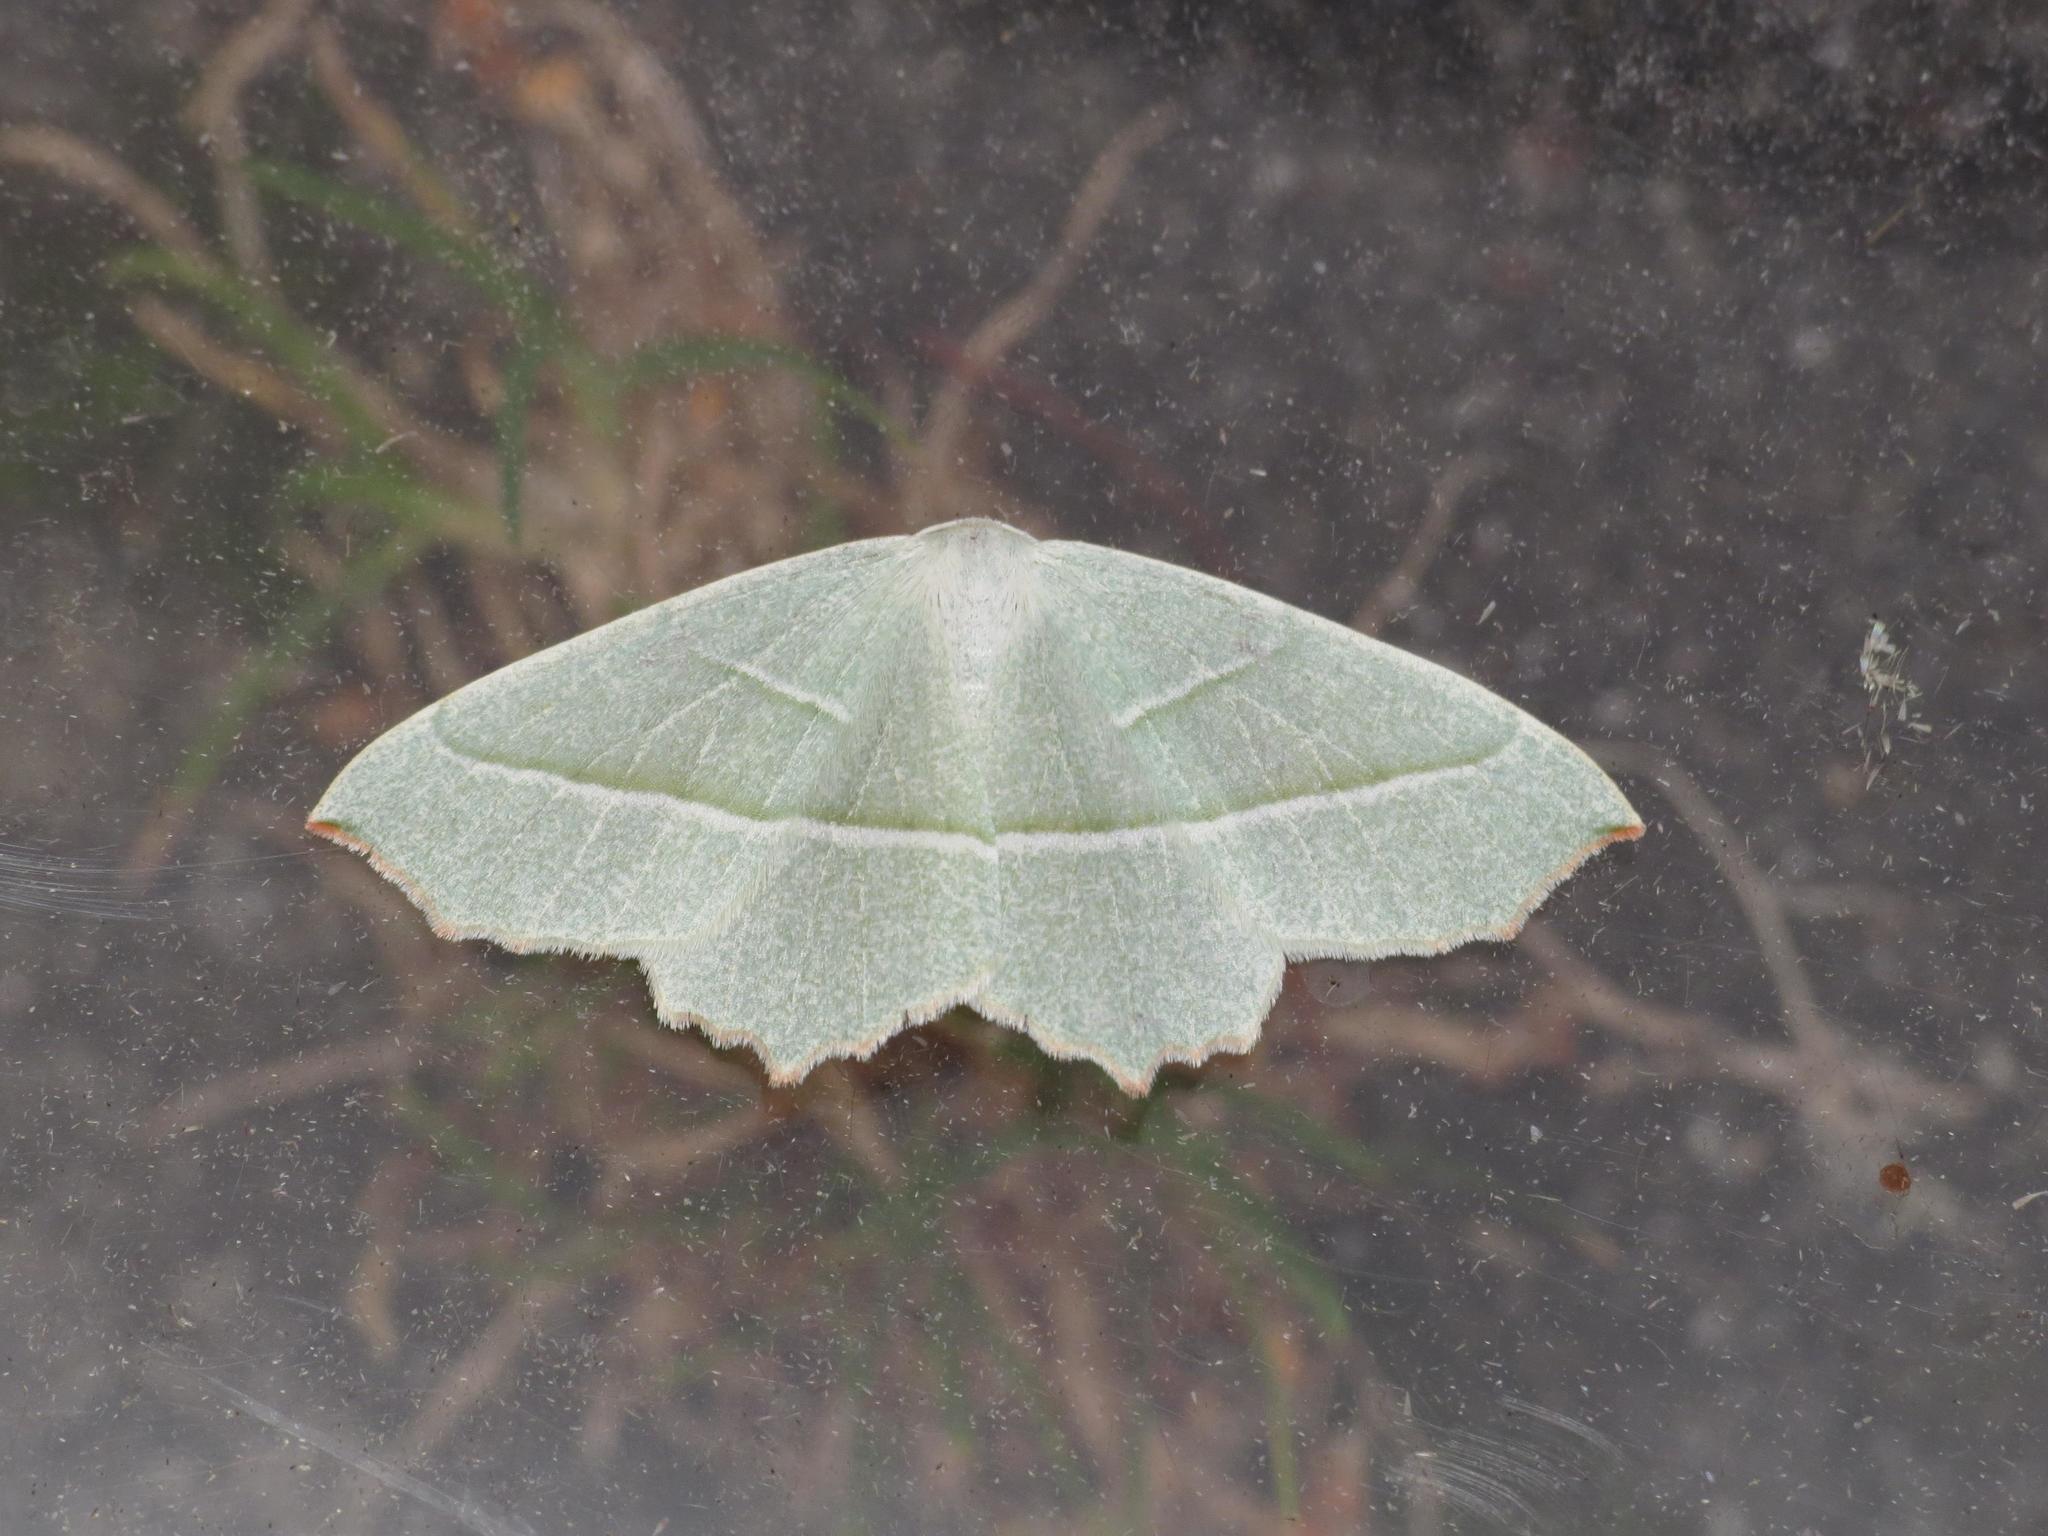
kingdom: Animalia
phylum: Arthropoda
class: Insecta
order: Lepidoptera
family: Geometridae
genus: Campaea
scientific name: Campaea margaritaria
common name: Light emerald
